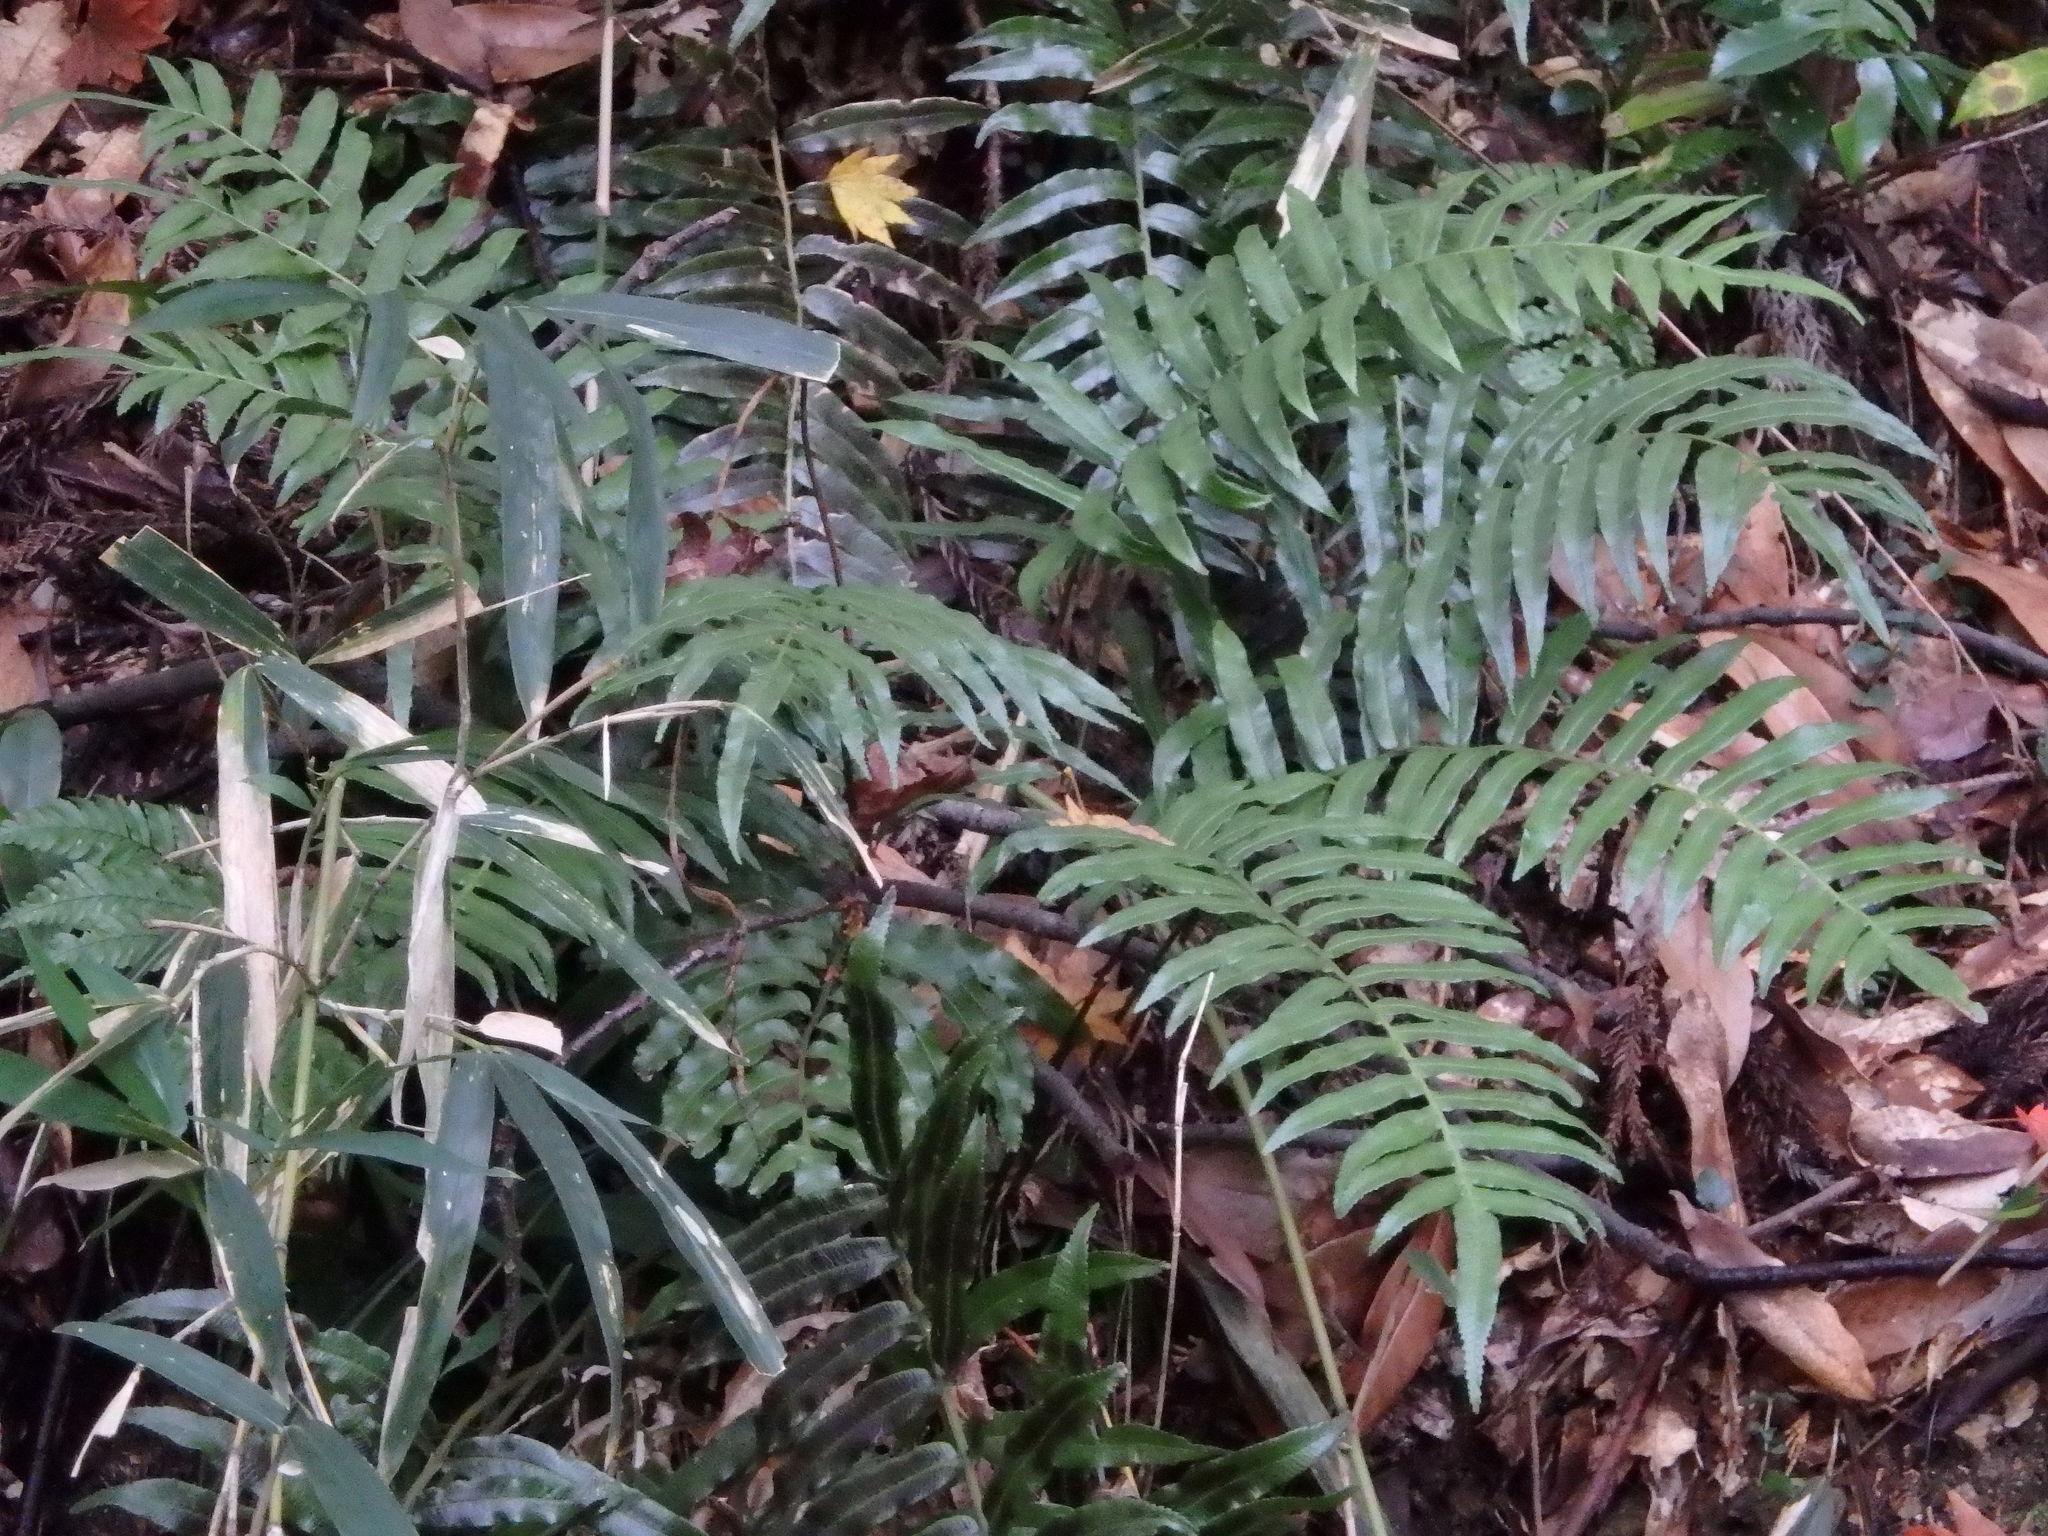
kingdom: Plantae
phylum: Tracheophyta
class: Polypodiopsida
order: Cyatheales
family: Plagiogyriaceae
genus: Plagiogyria
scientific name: Plagiogyria japonica
